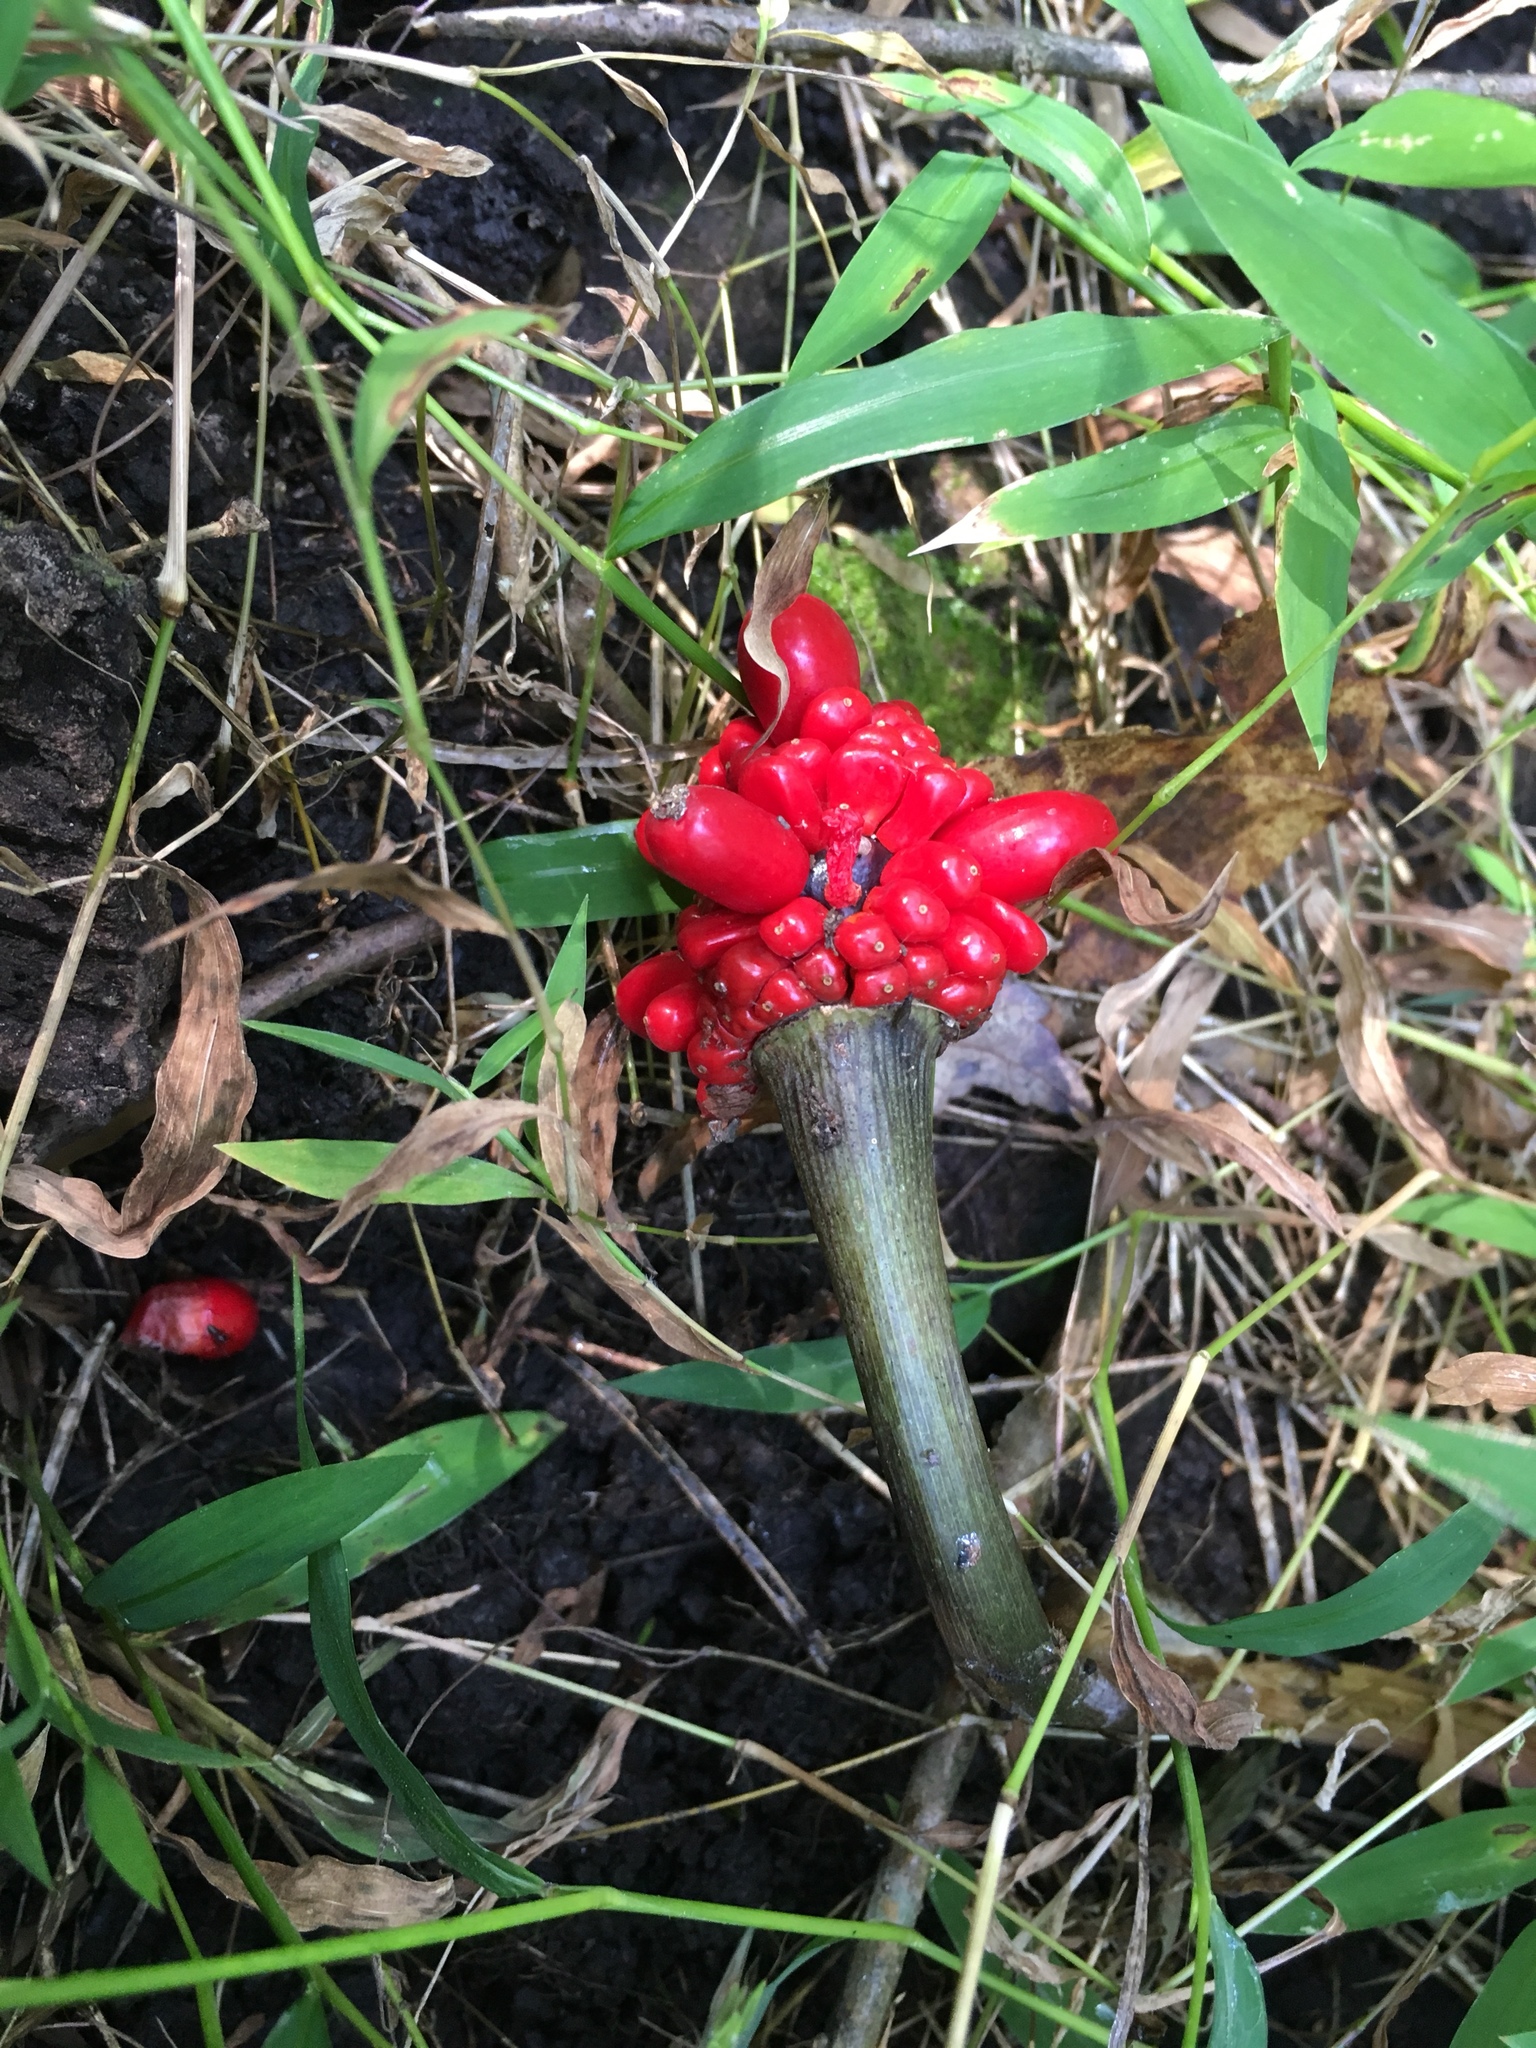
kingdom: Plantae
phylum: Tracheophyta
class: Liliopsida
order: Alismatales
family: Araceae
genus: Arisaema
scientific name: Arisaema triphyllum
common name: Jack-in-the-pulpit
